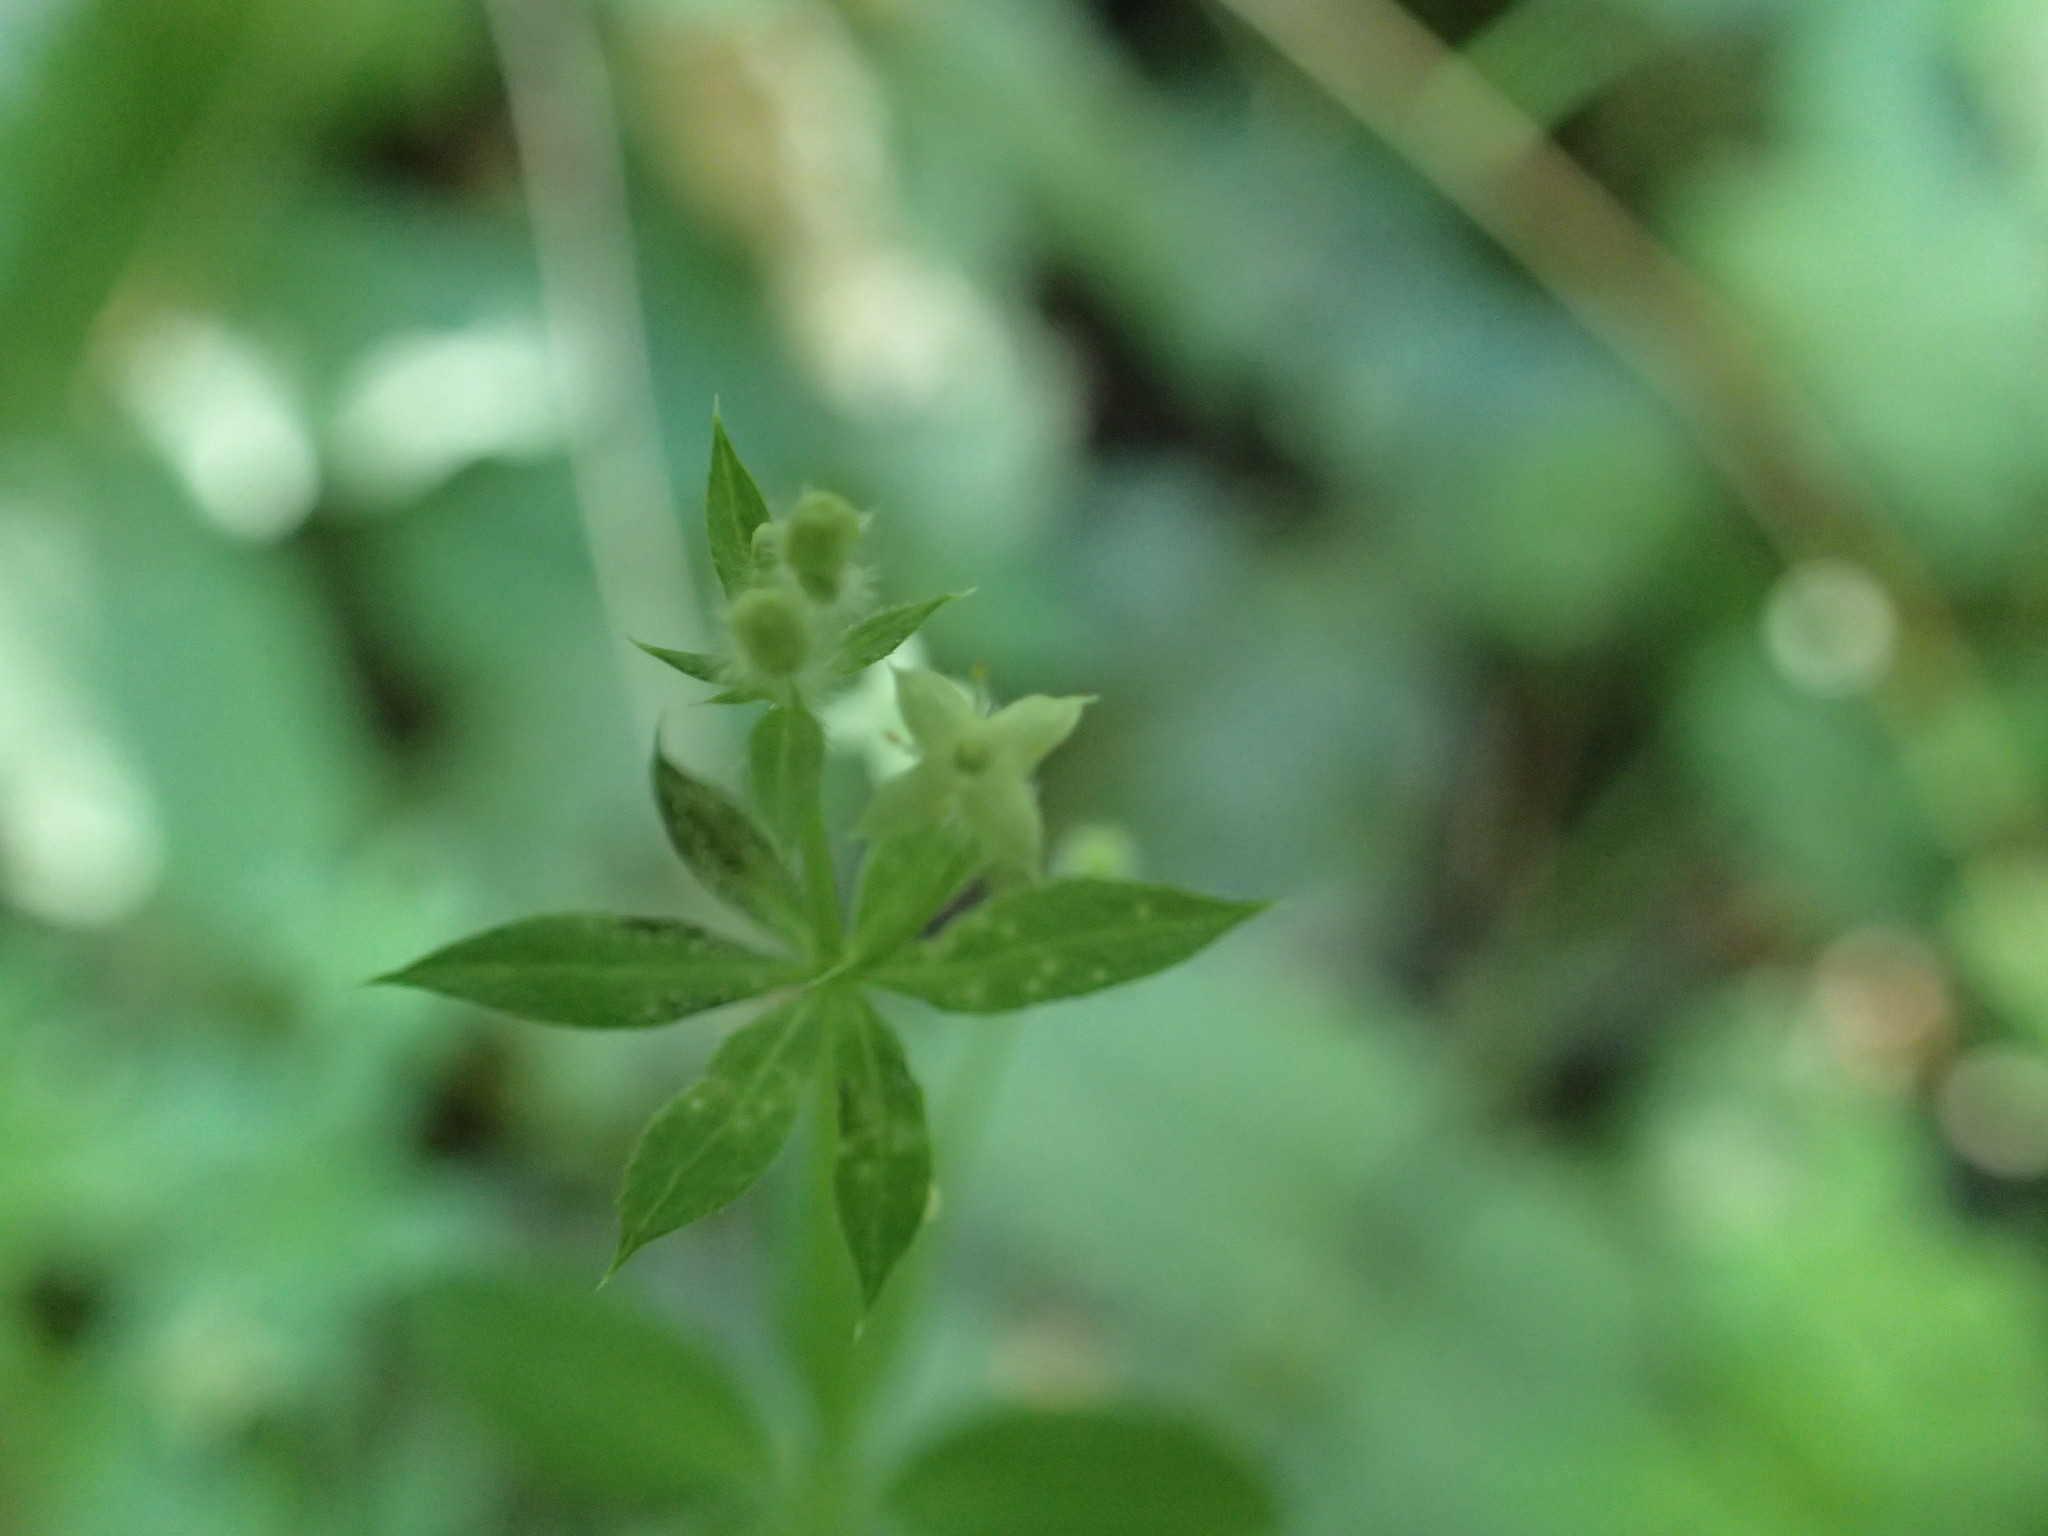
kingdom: Plantae
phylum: Tracheophyta
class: Magnoliopsida
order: Gentianales
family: Rubiaceae
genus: Galium
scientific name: Galium triflorum
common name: Fragrant bedstraw
